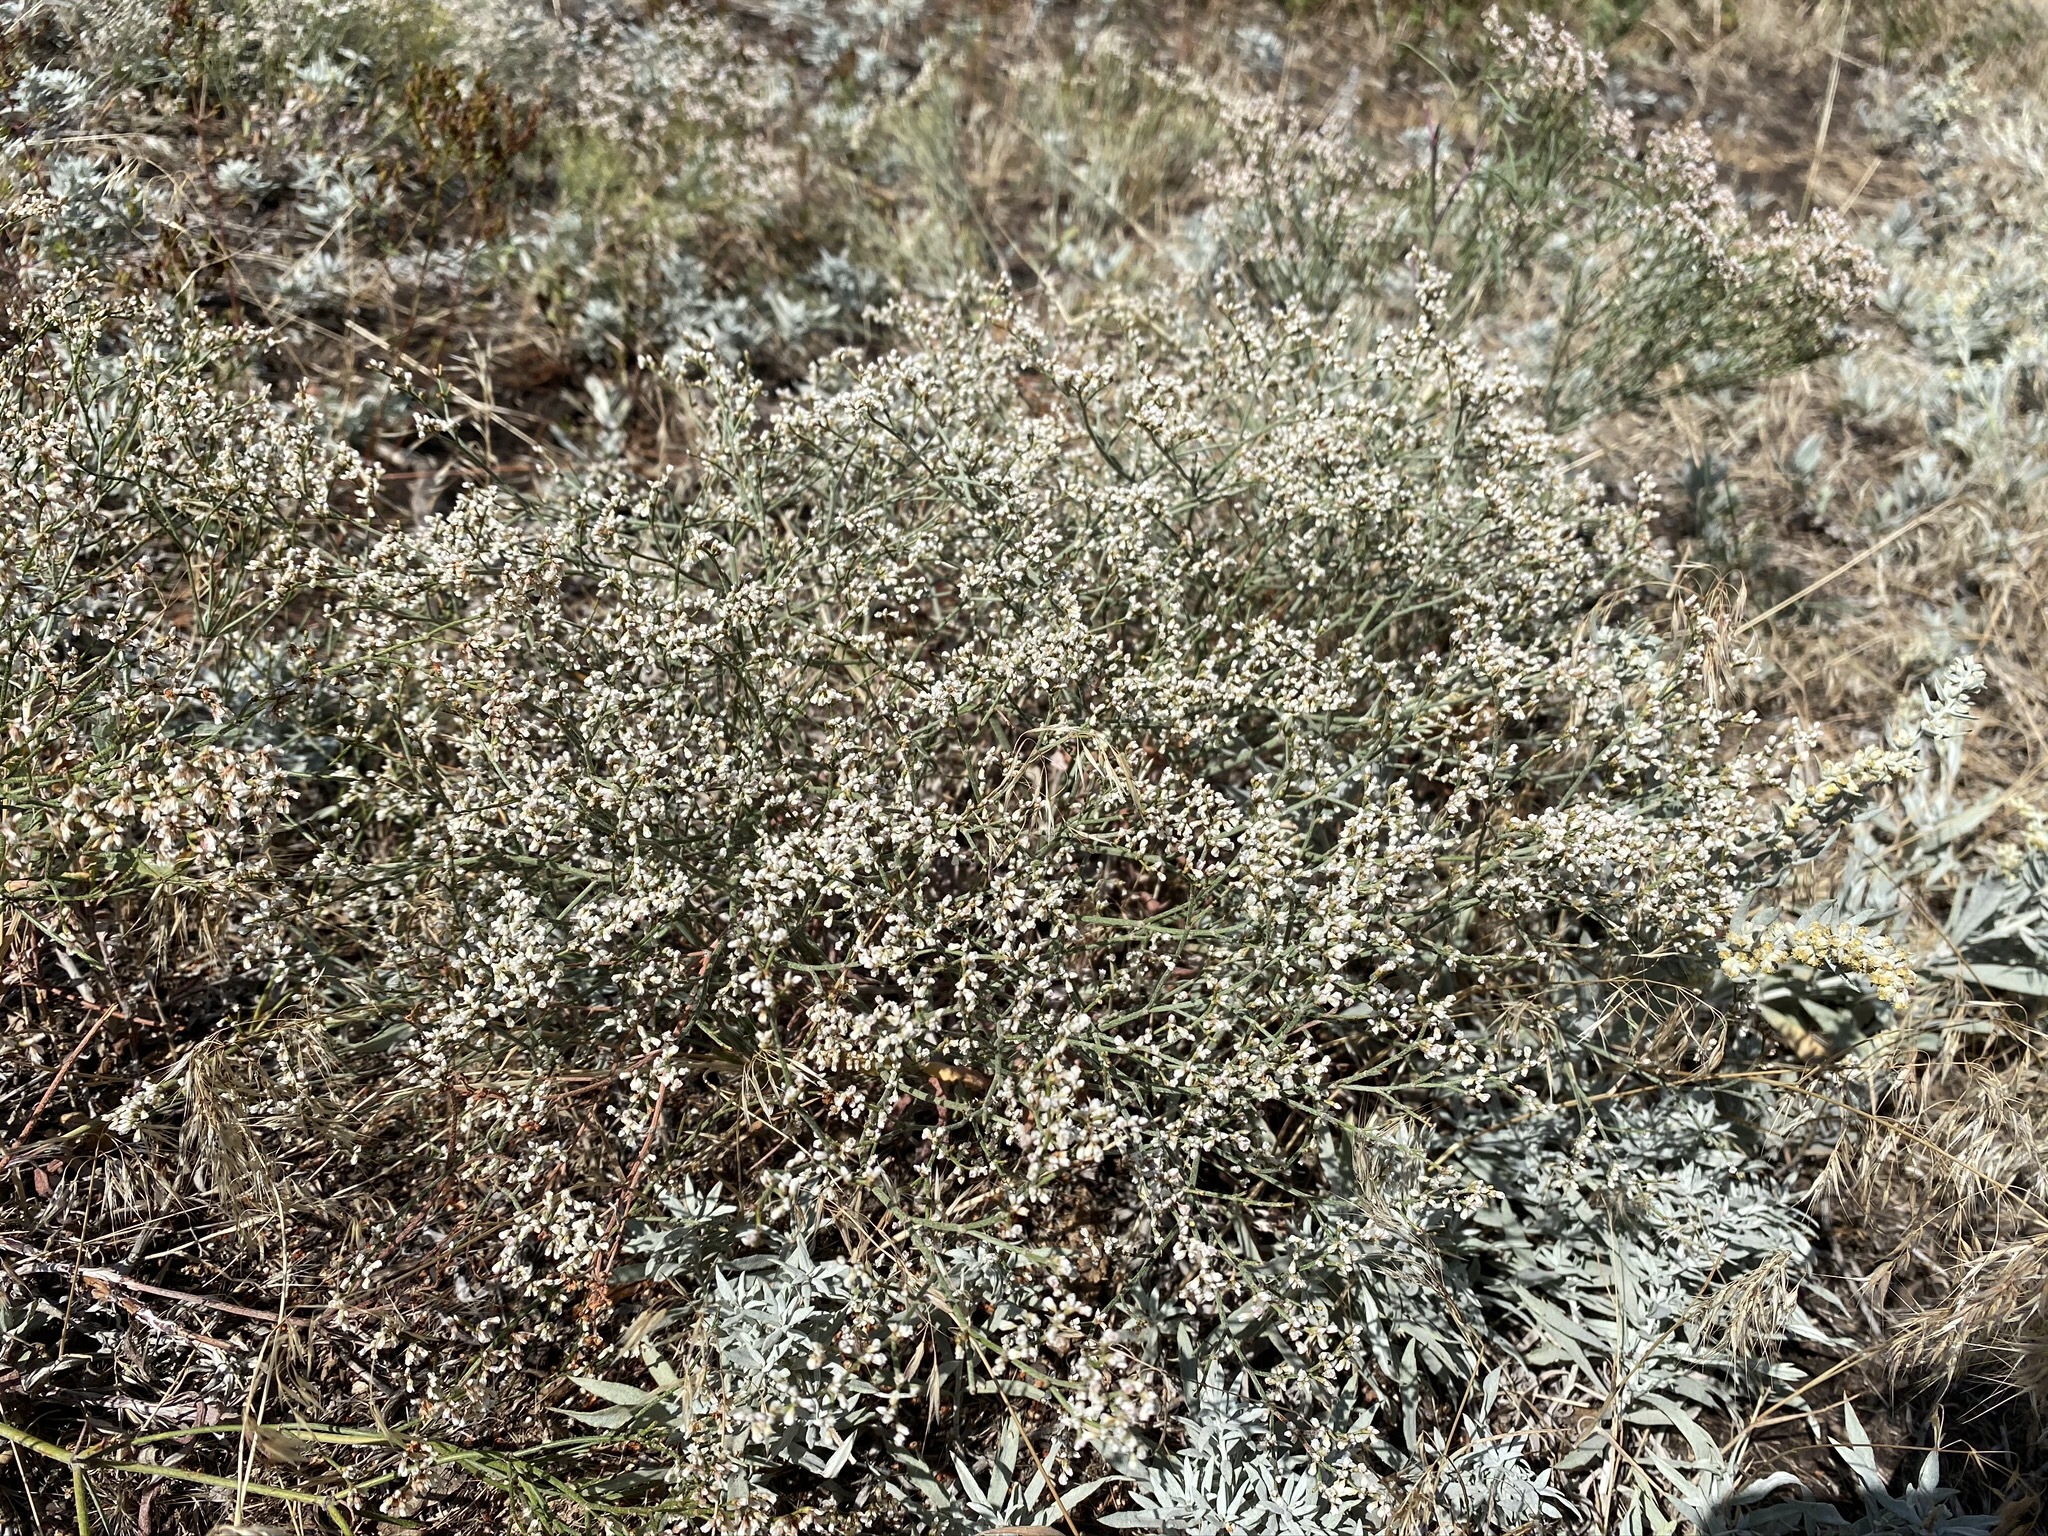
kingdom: Plantae
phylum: Tracheophyta
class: Magnoliopsida
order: Caryophyllales
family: Polygonaceae
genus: Eriogonum
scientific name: Eriogonum effusum
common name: Spreading wild buckwheat
